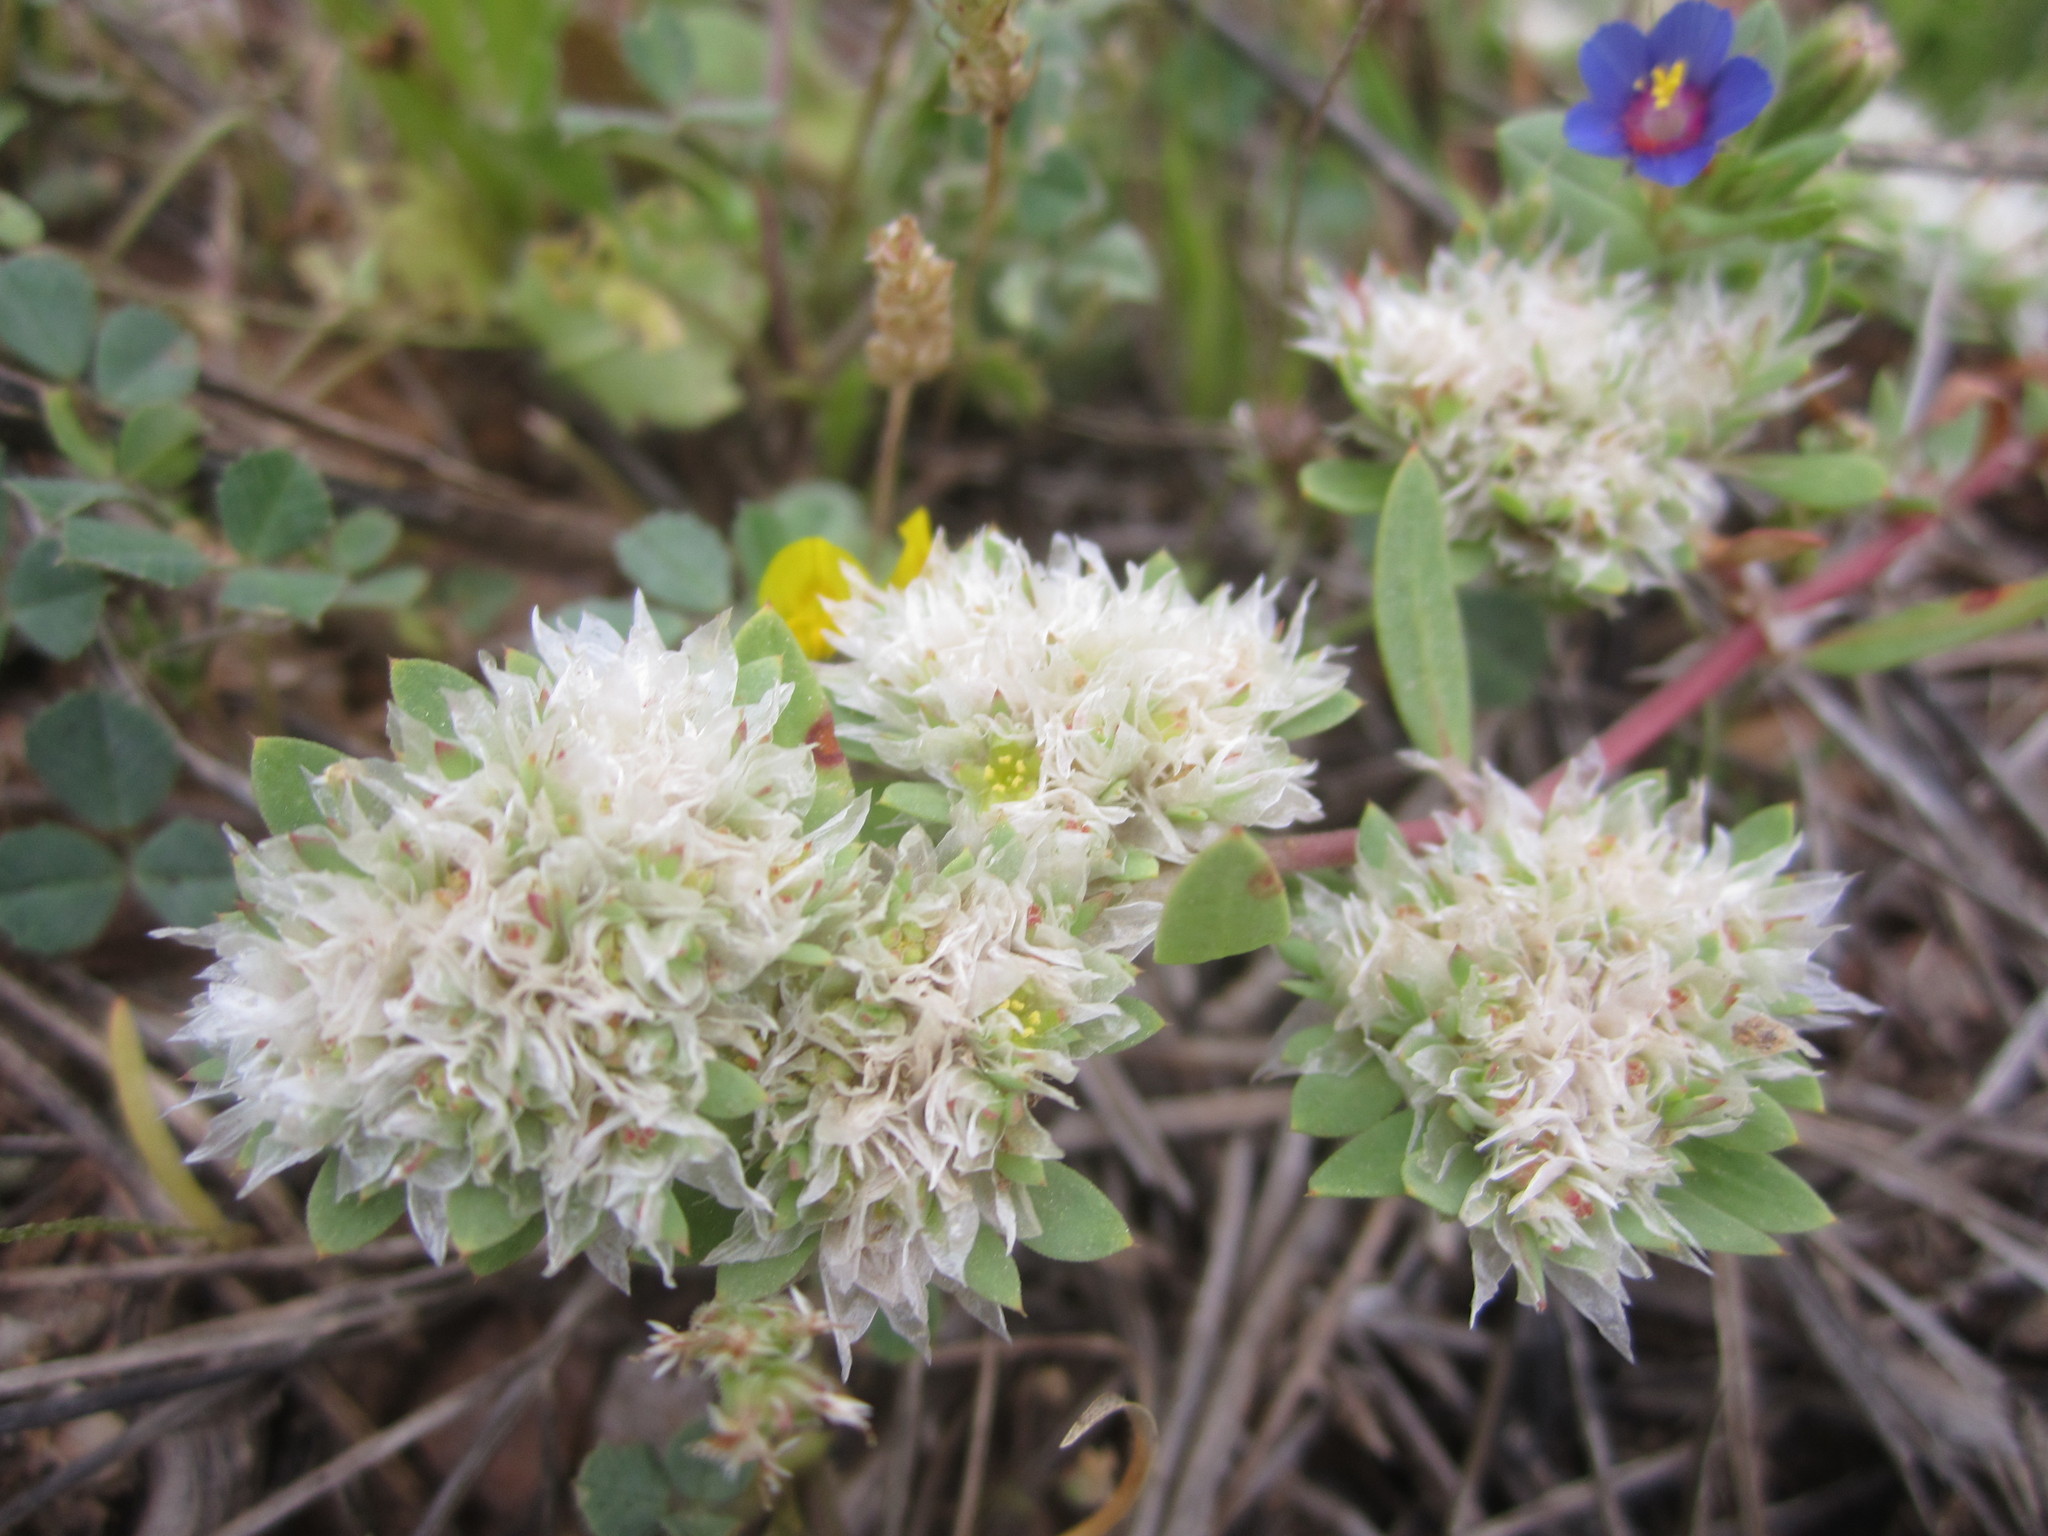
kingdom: Plantae
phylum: Tracheophyta
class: Magnoliopsida
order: Caryophyllales
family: Caryophyllaceae
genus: Paronychia
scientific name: Paronychia argentea
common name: Silver nailroot
